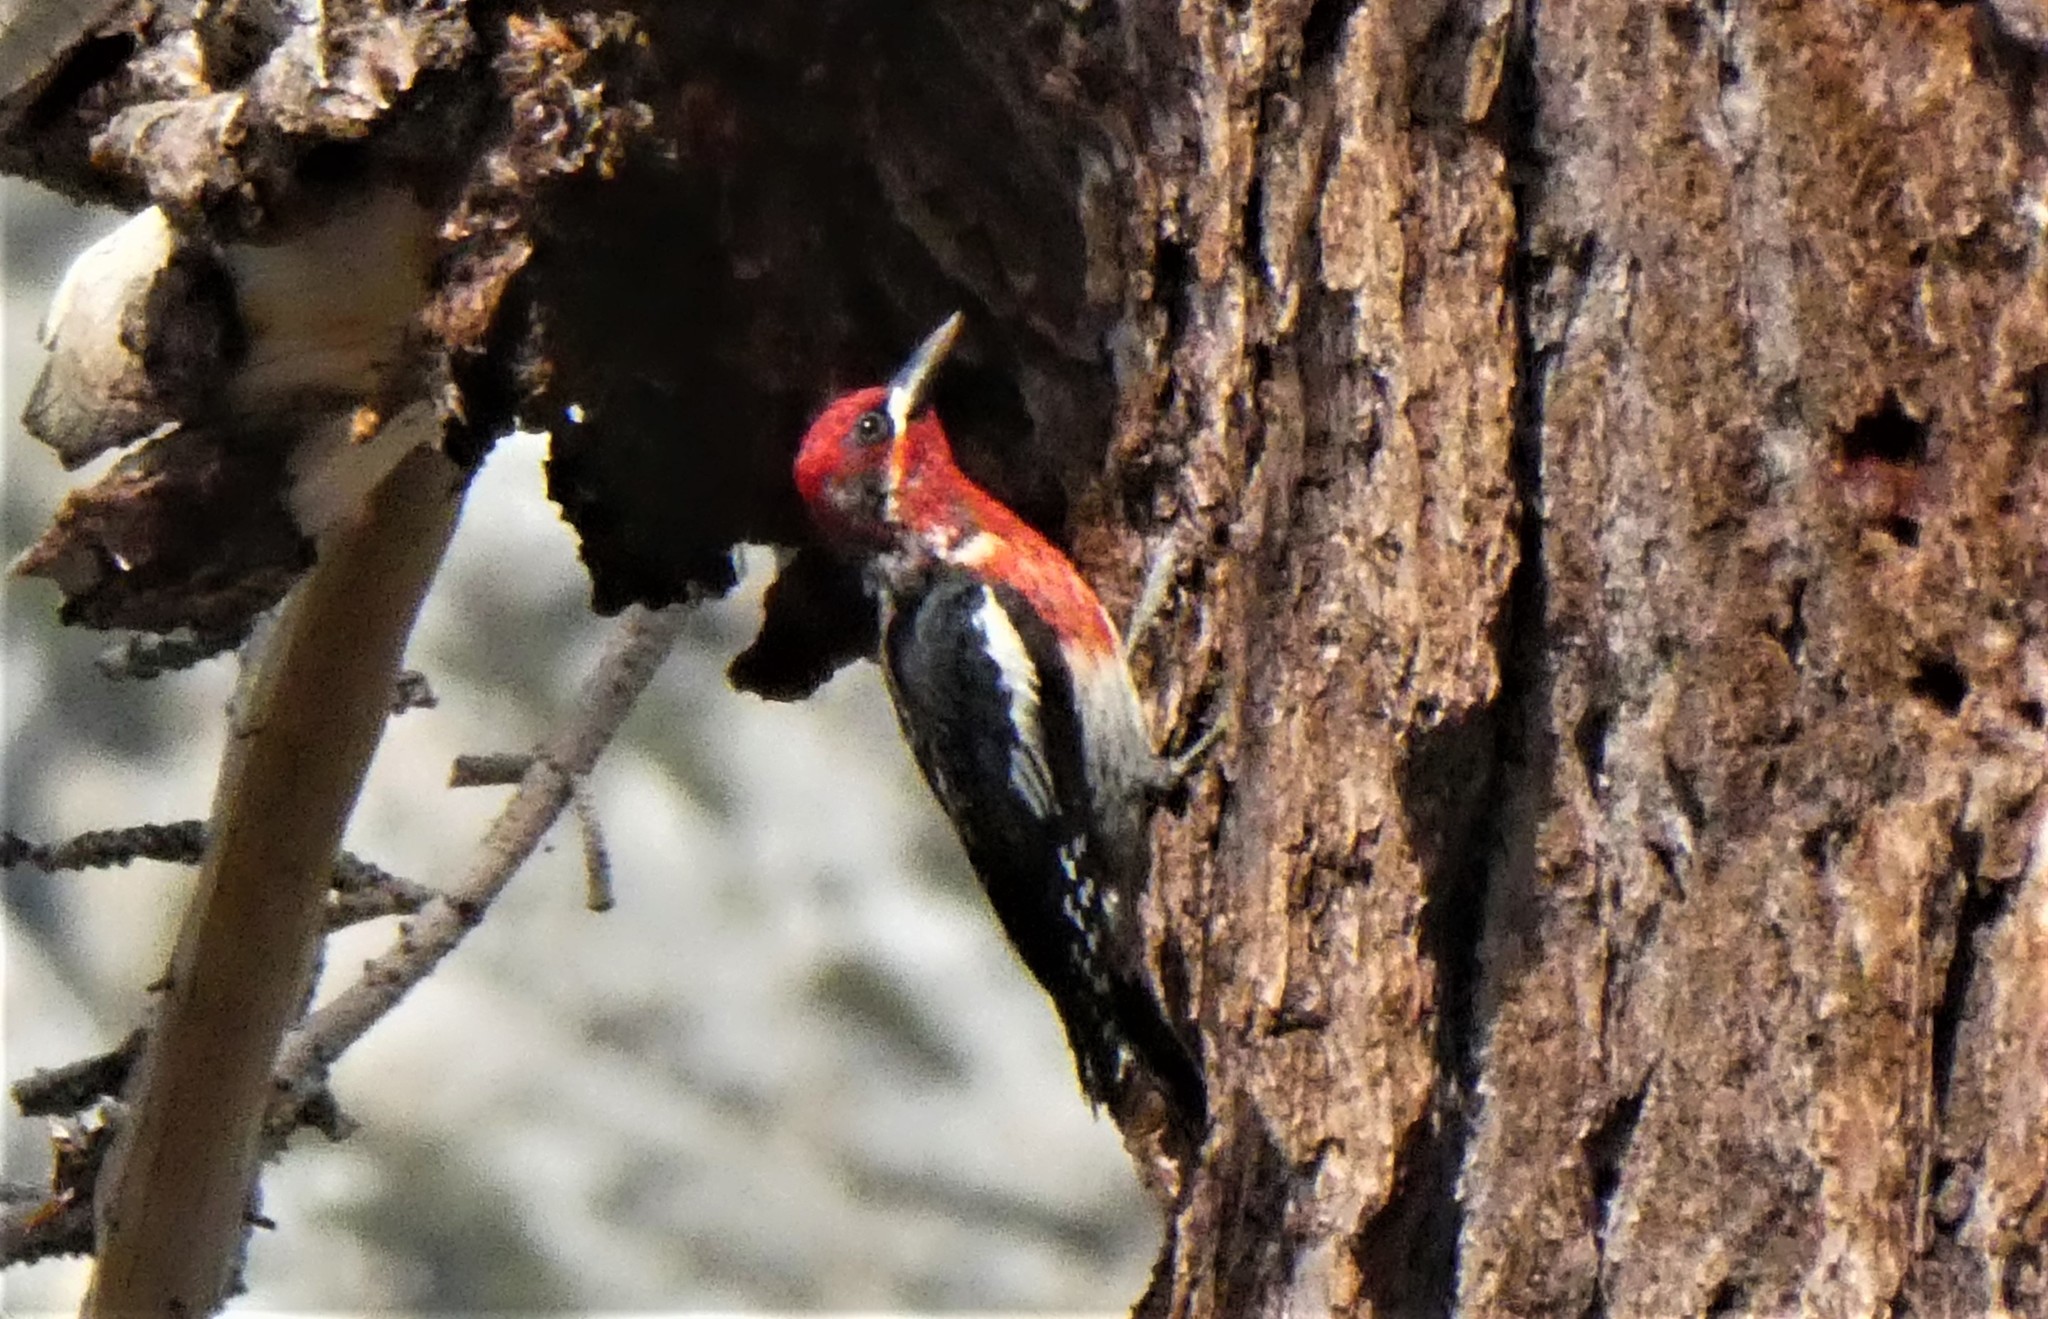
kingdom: Animalia
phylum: Chordata
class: Aves
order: Piciformes
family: Picidae
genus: Sphyrapicus
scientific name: Sphyrapicus ruber
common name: Red-breasted sapsucker
